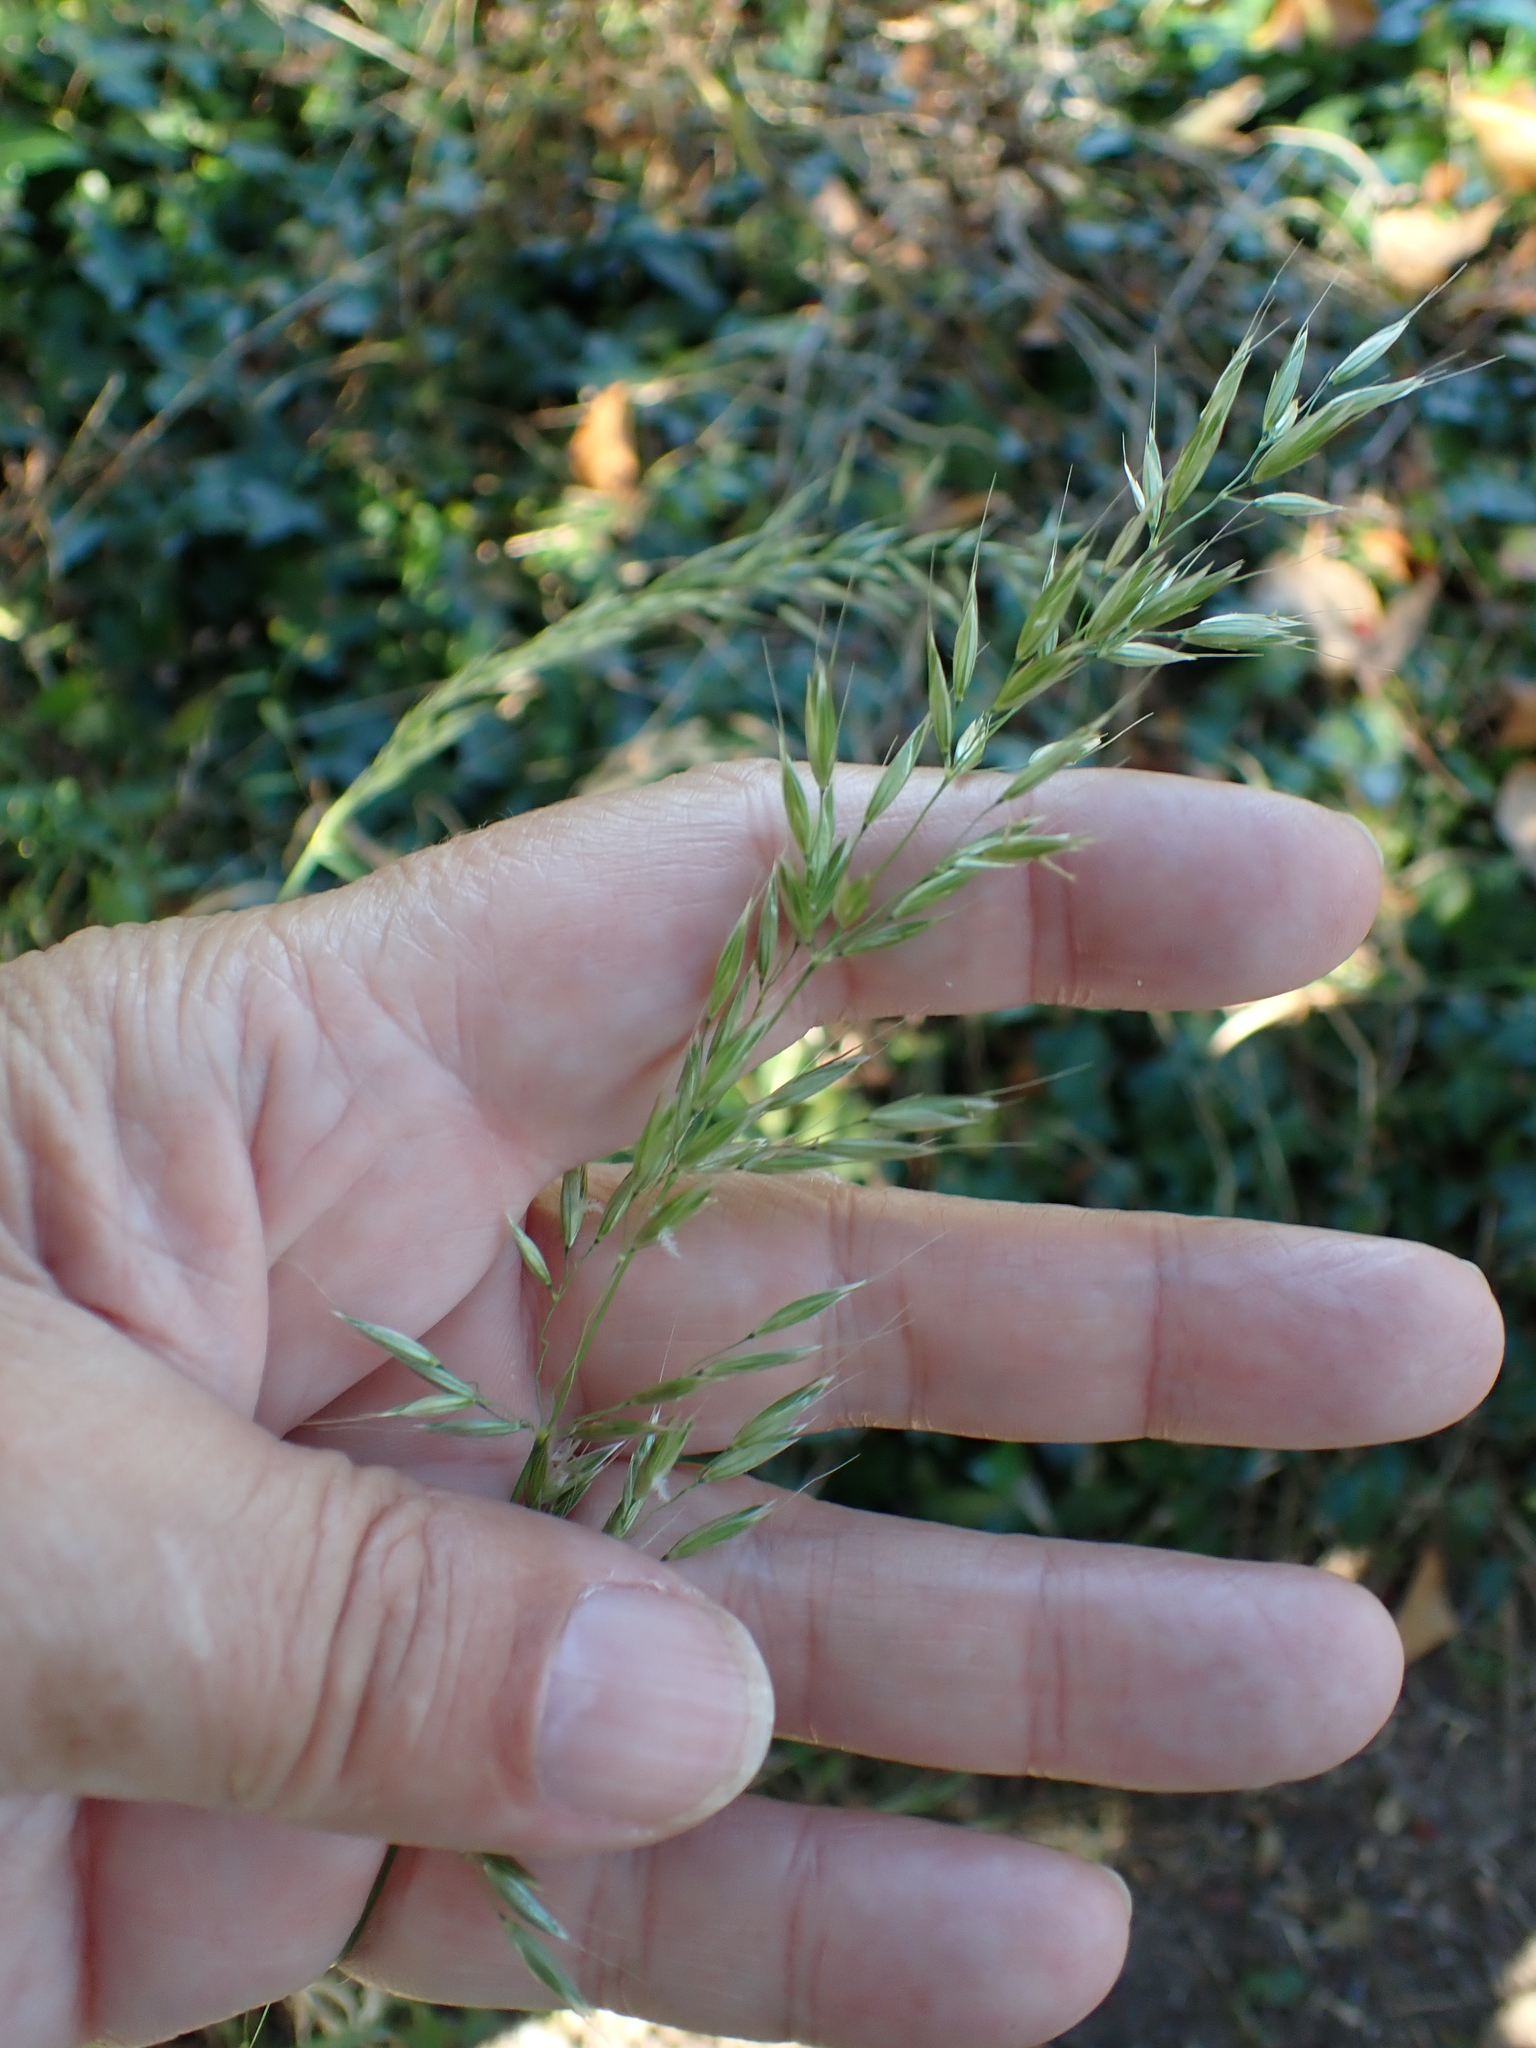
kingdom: Plantae
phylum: Tracheophyta
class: Liliopsida
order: Poales
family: Poaceae
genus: Arrhenatherum
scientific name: Arrhenatherum elatius
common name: Tall oatgrass
